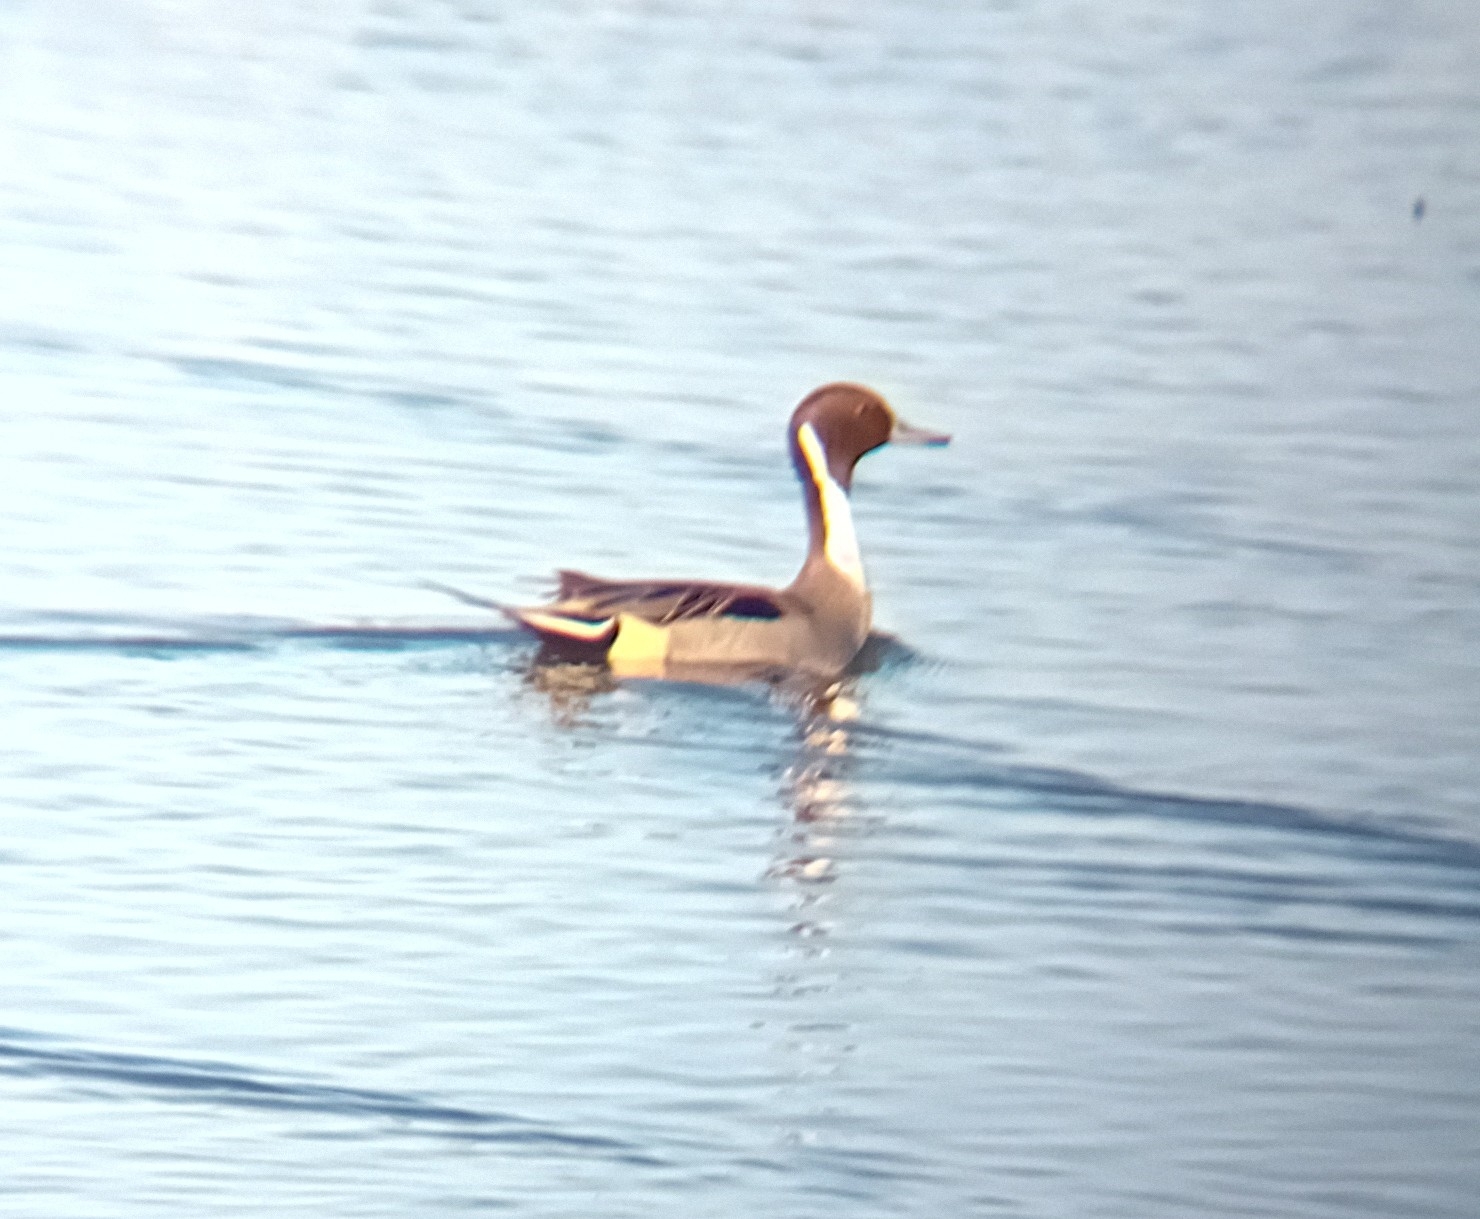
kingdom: Animalia
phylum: Chordata
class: Aves
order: Anseriformes
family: Anatidae
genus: Anas
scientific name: Anas acuta
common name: Northern pintail
